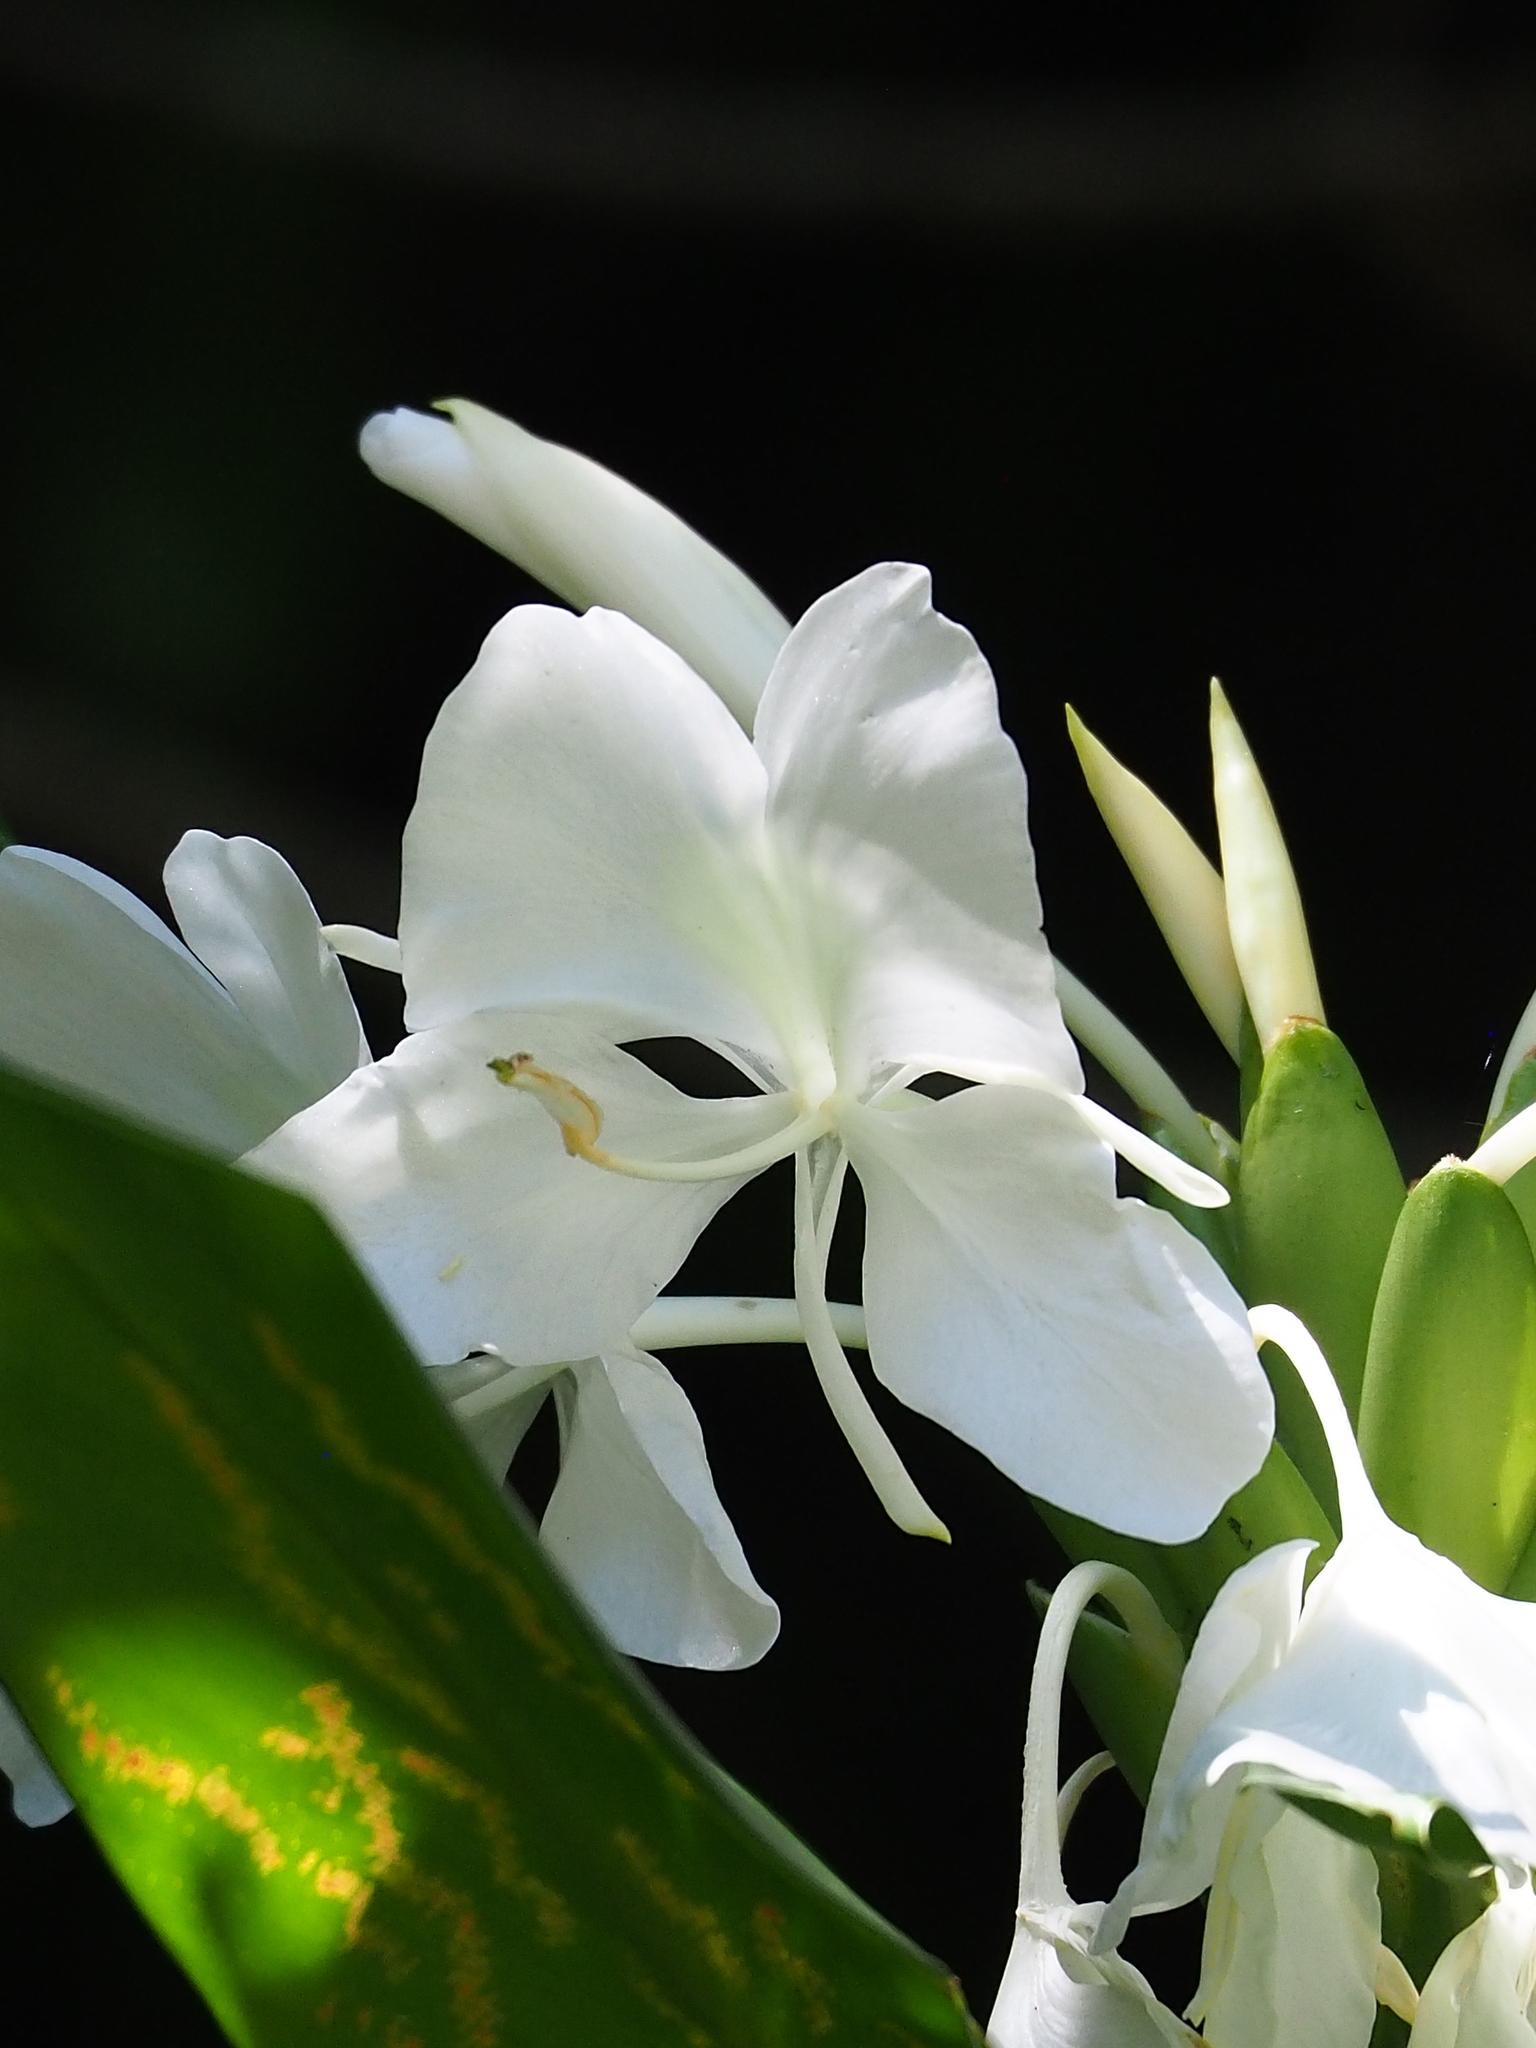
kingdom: Plantae
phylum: Tracheophyta
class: Liliopsida
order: Zingiberales
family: Zingiberaceae
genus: Hedychium
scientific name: Hedychium coronarium
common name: White garland-lily
